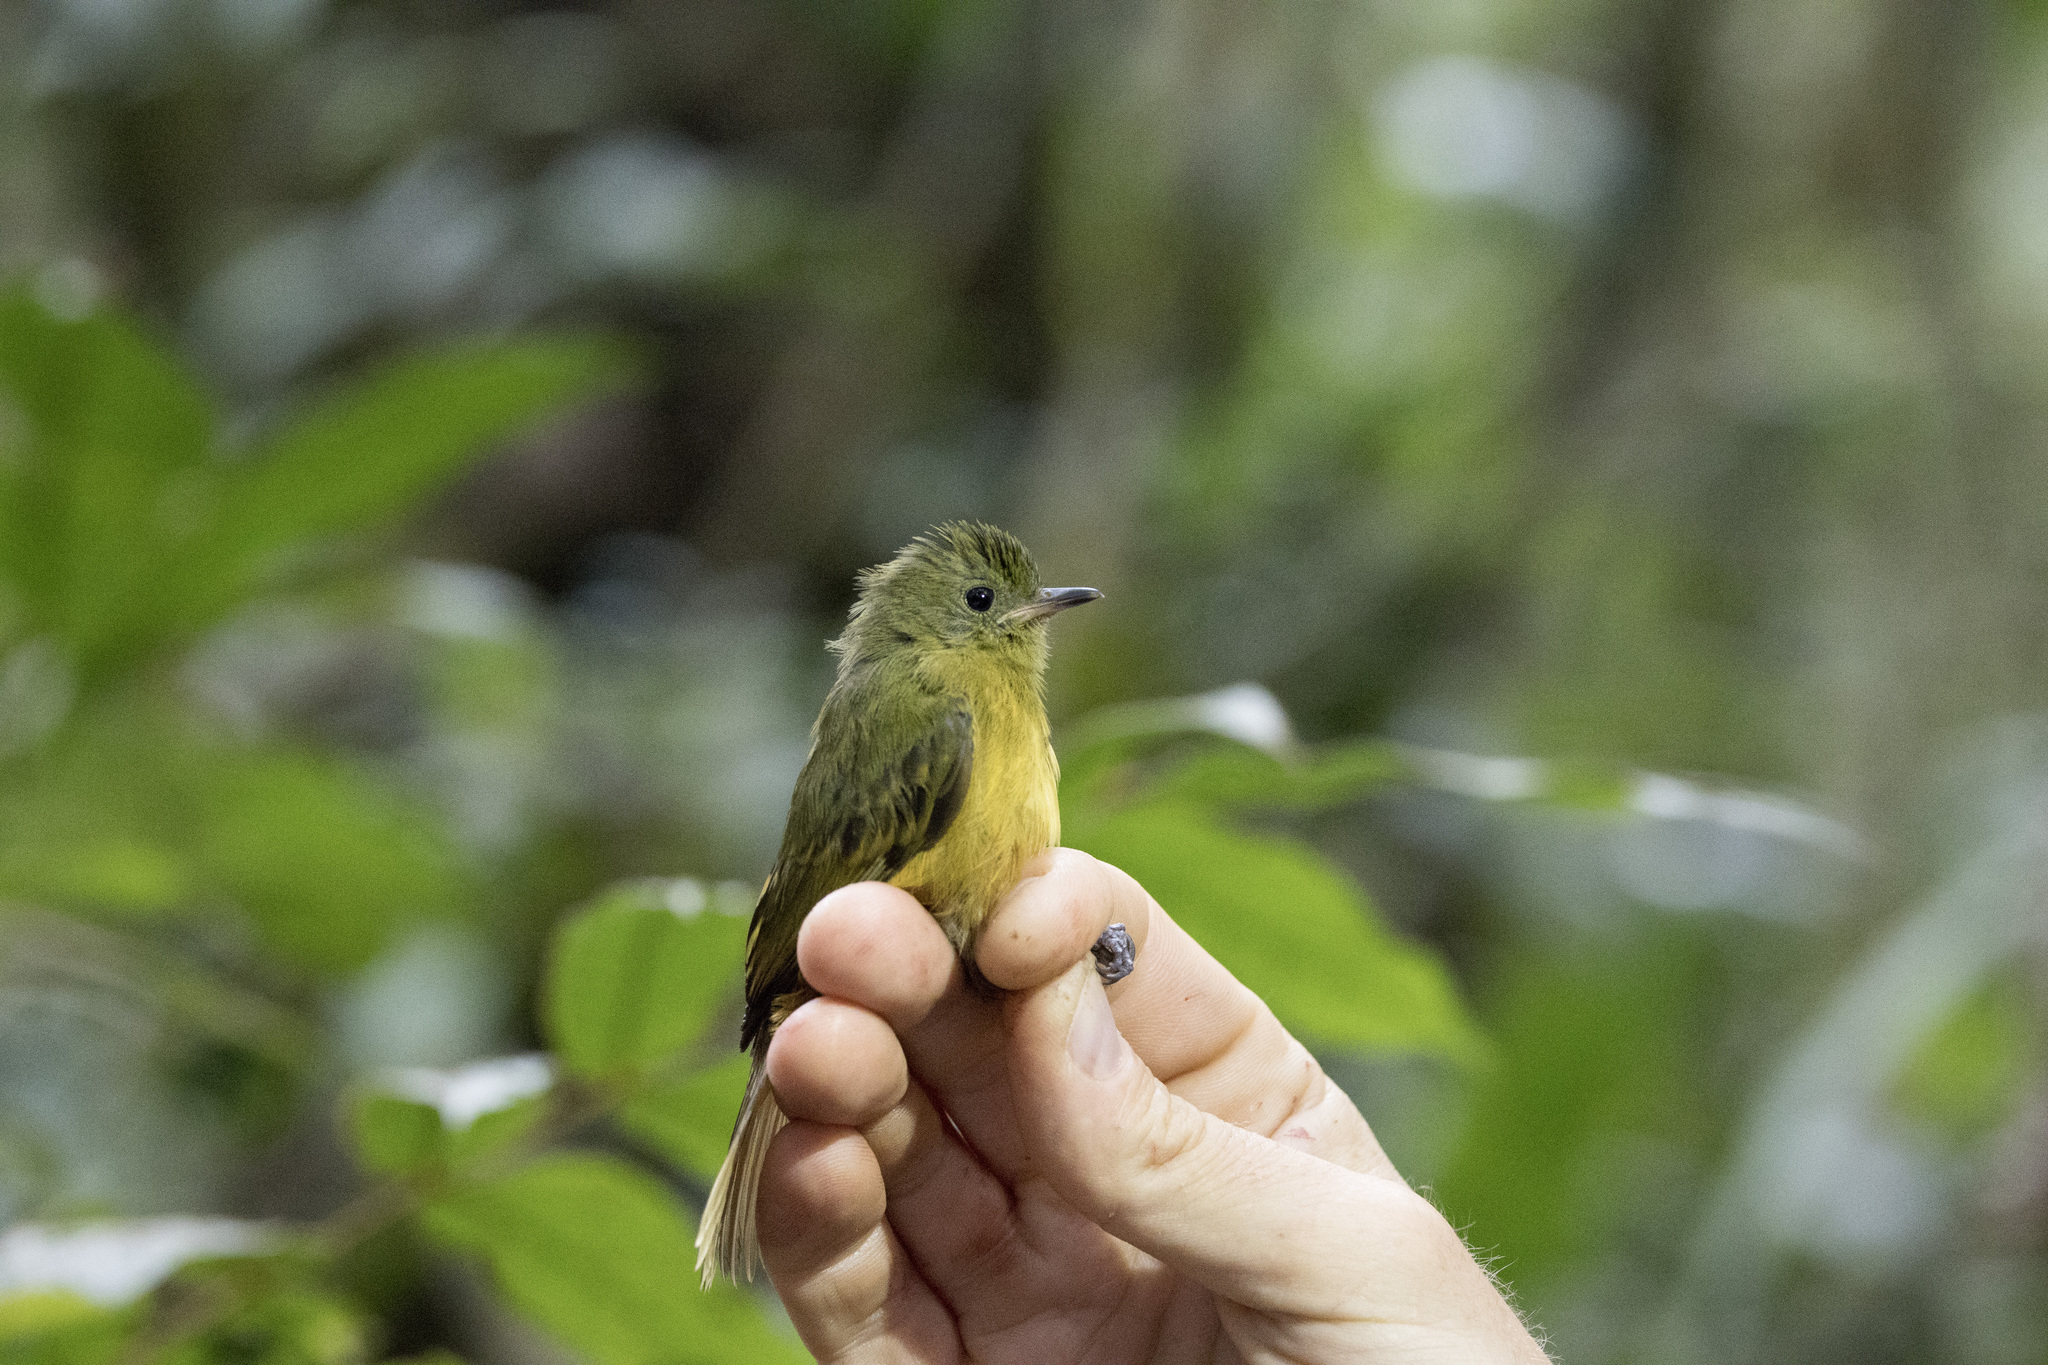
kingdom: Animalia
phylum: Chordata
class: Aves
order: Passeriformes
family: Tyrannidae
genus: Mionectes
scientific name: Mionectes oleagineus
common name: Ochre-bellied flycatcher
